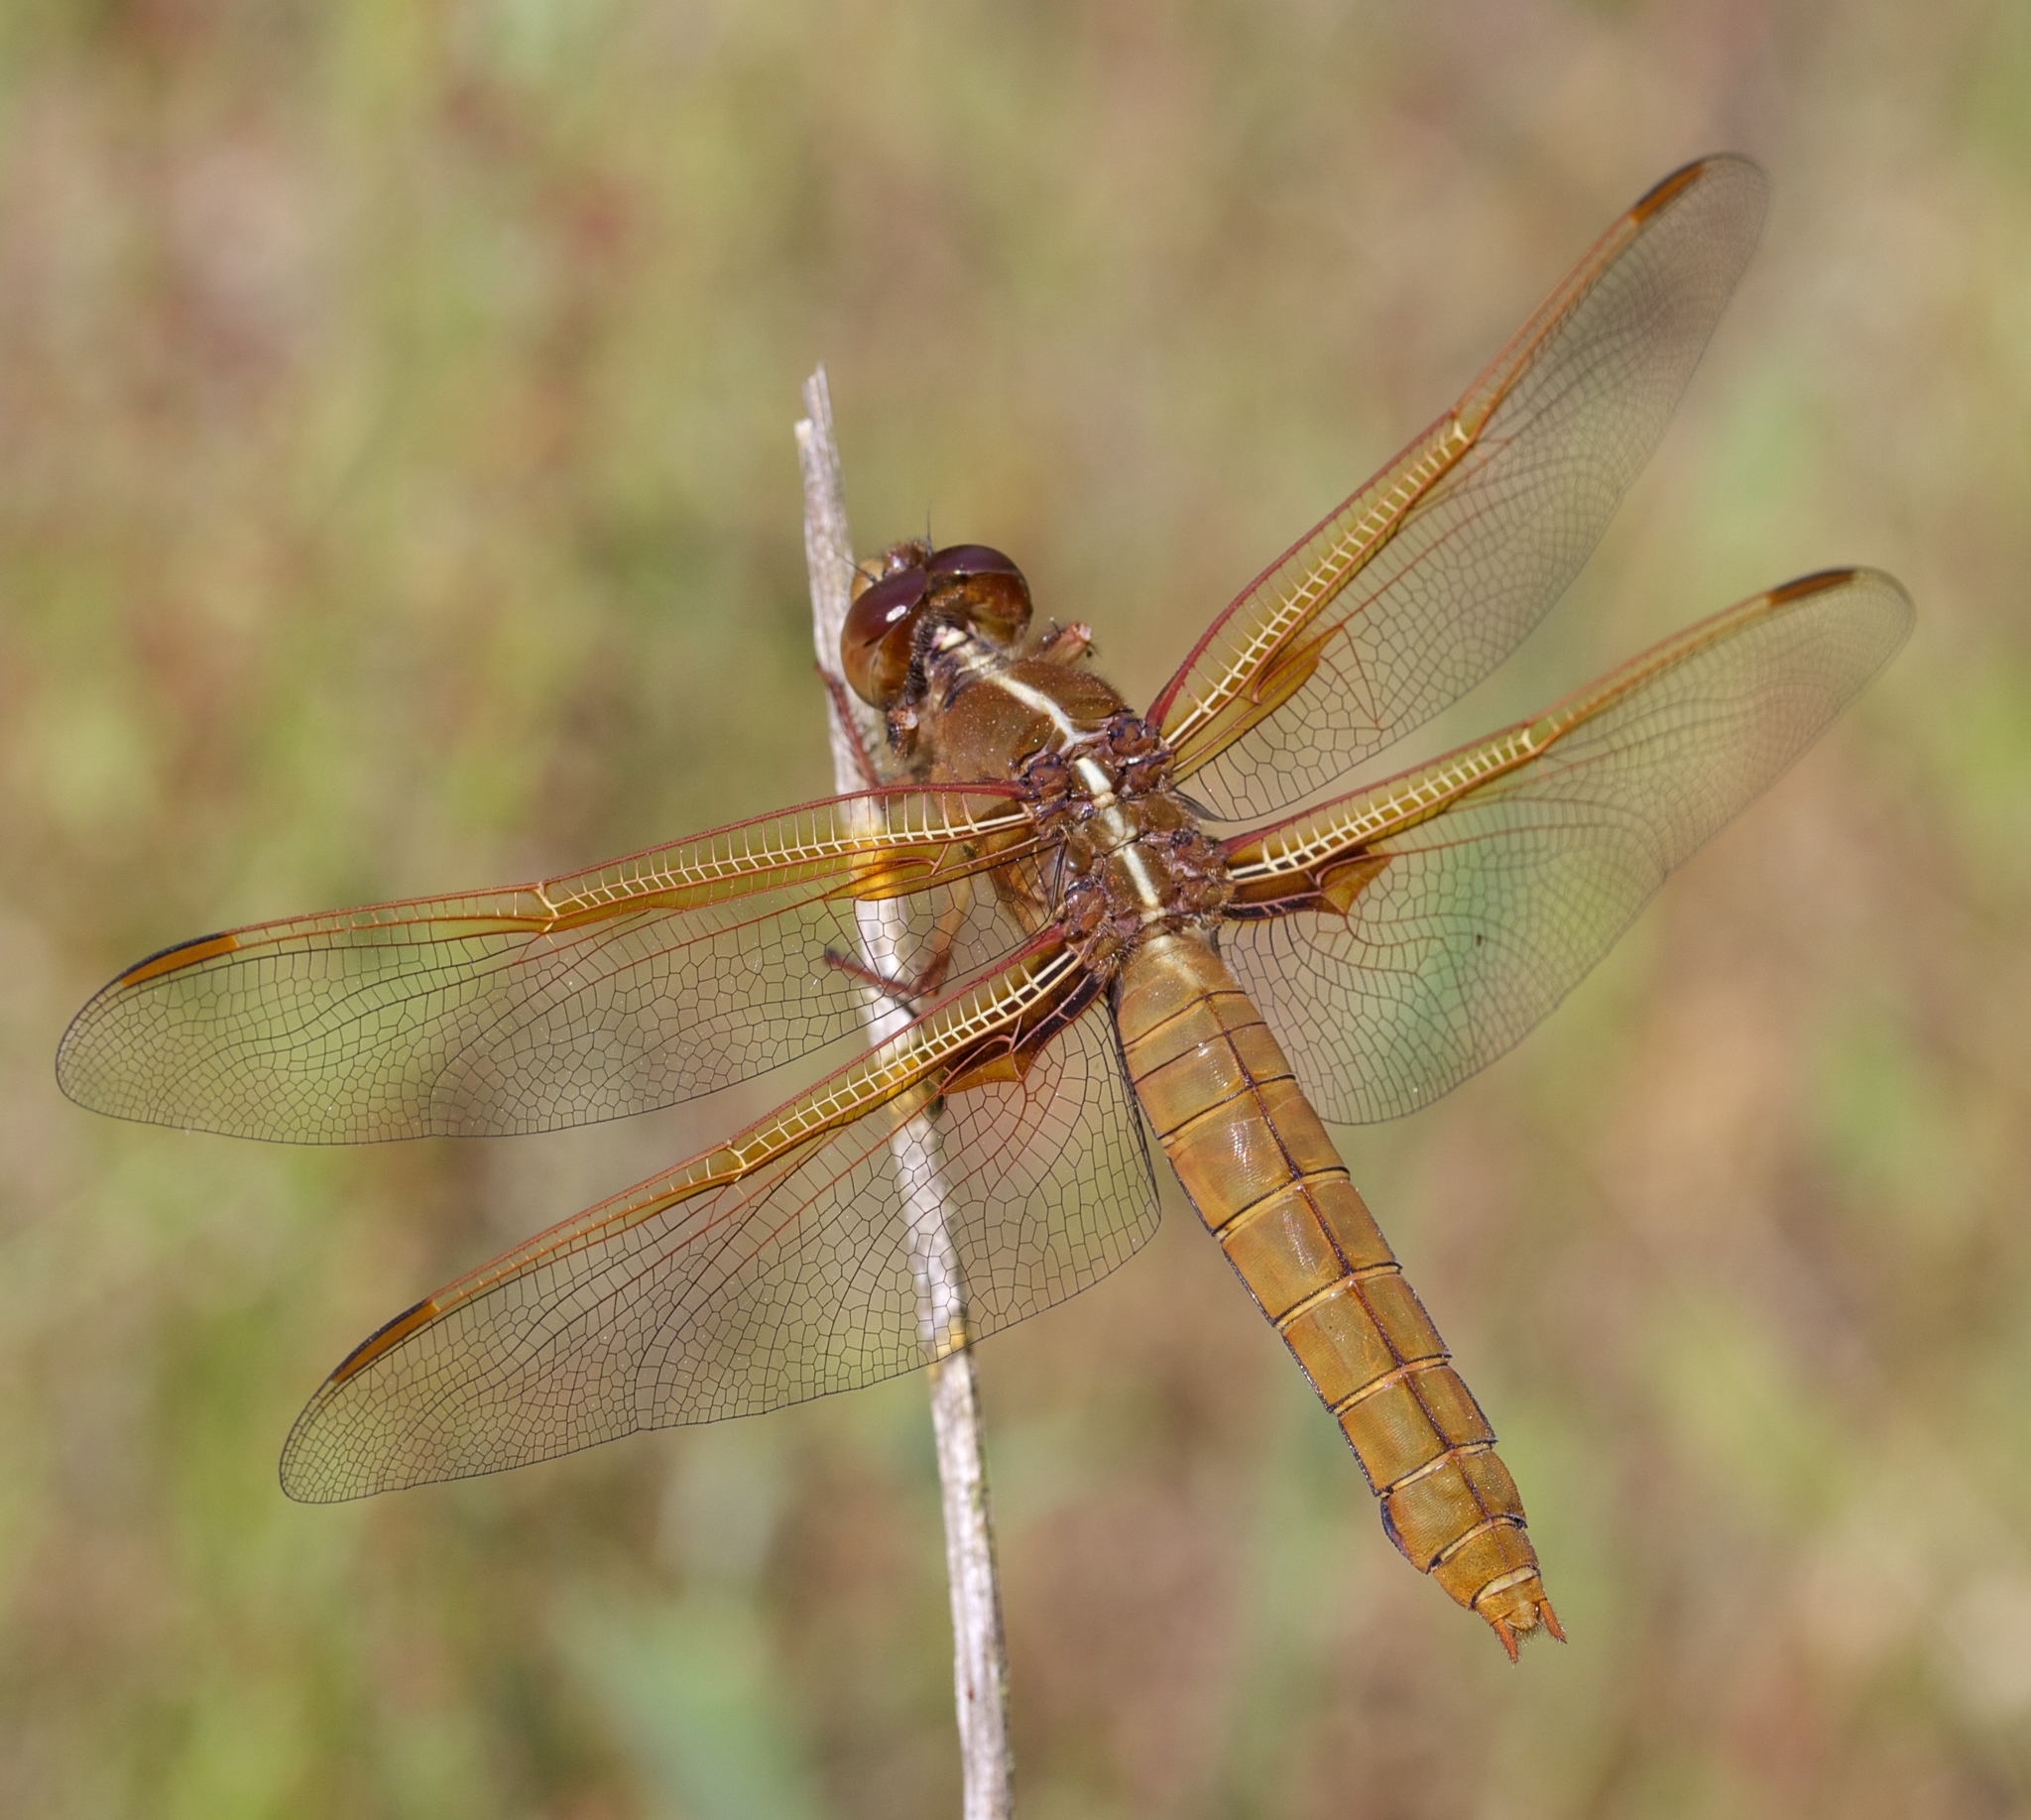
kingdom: Animalia
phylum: Arthropoda
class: Insecta
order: Odonata
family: Libellulidae
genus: Libellula
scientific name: Libellula saturata
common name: Flame skimmer
